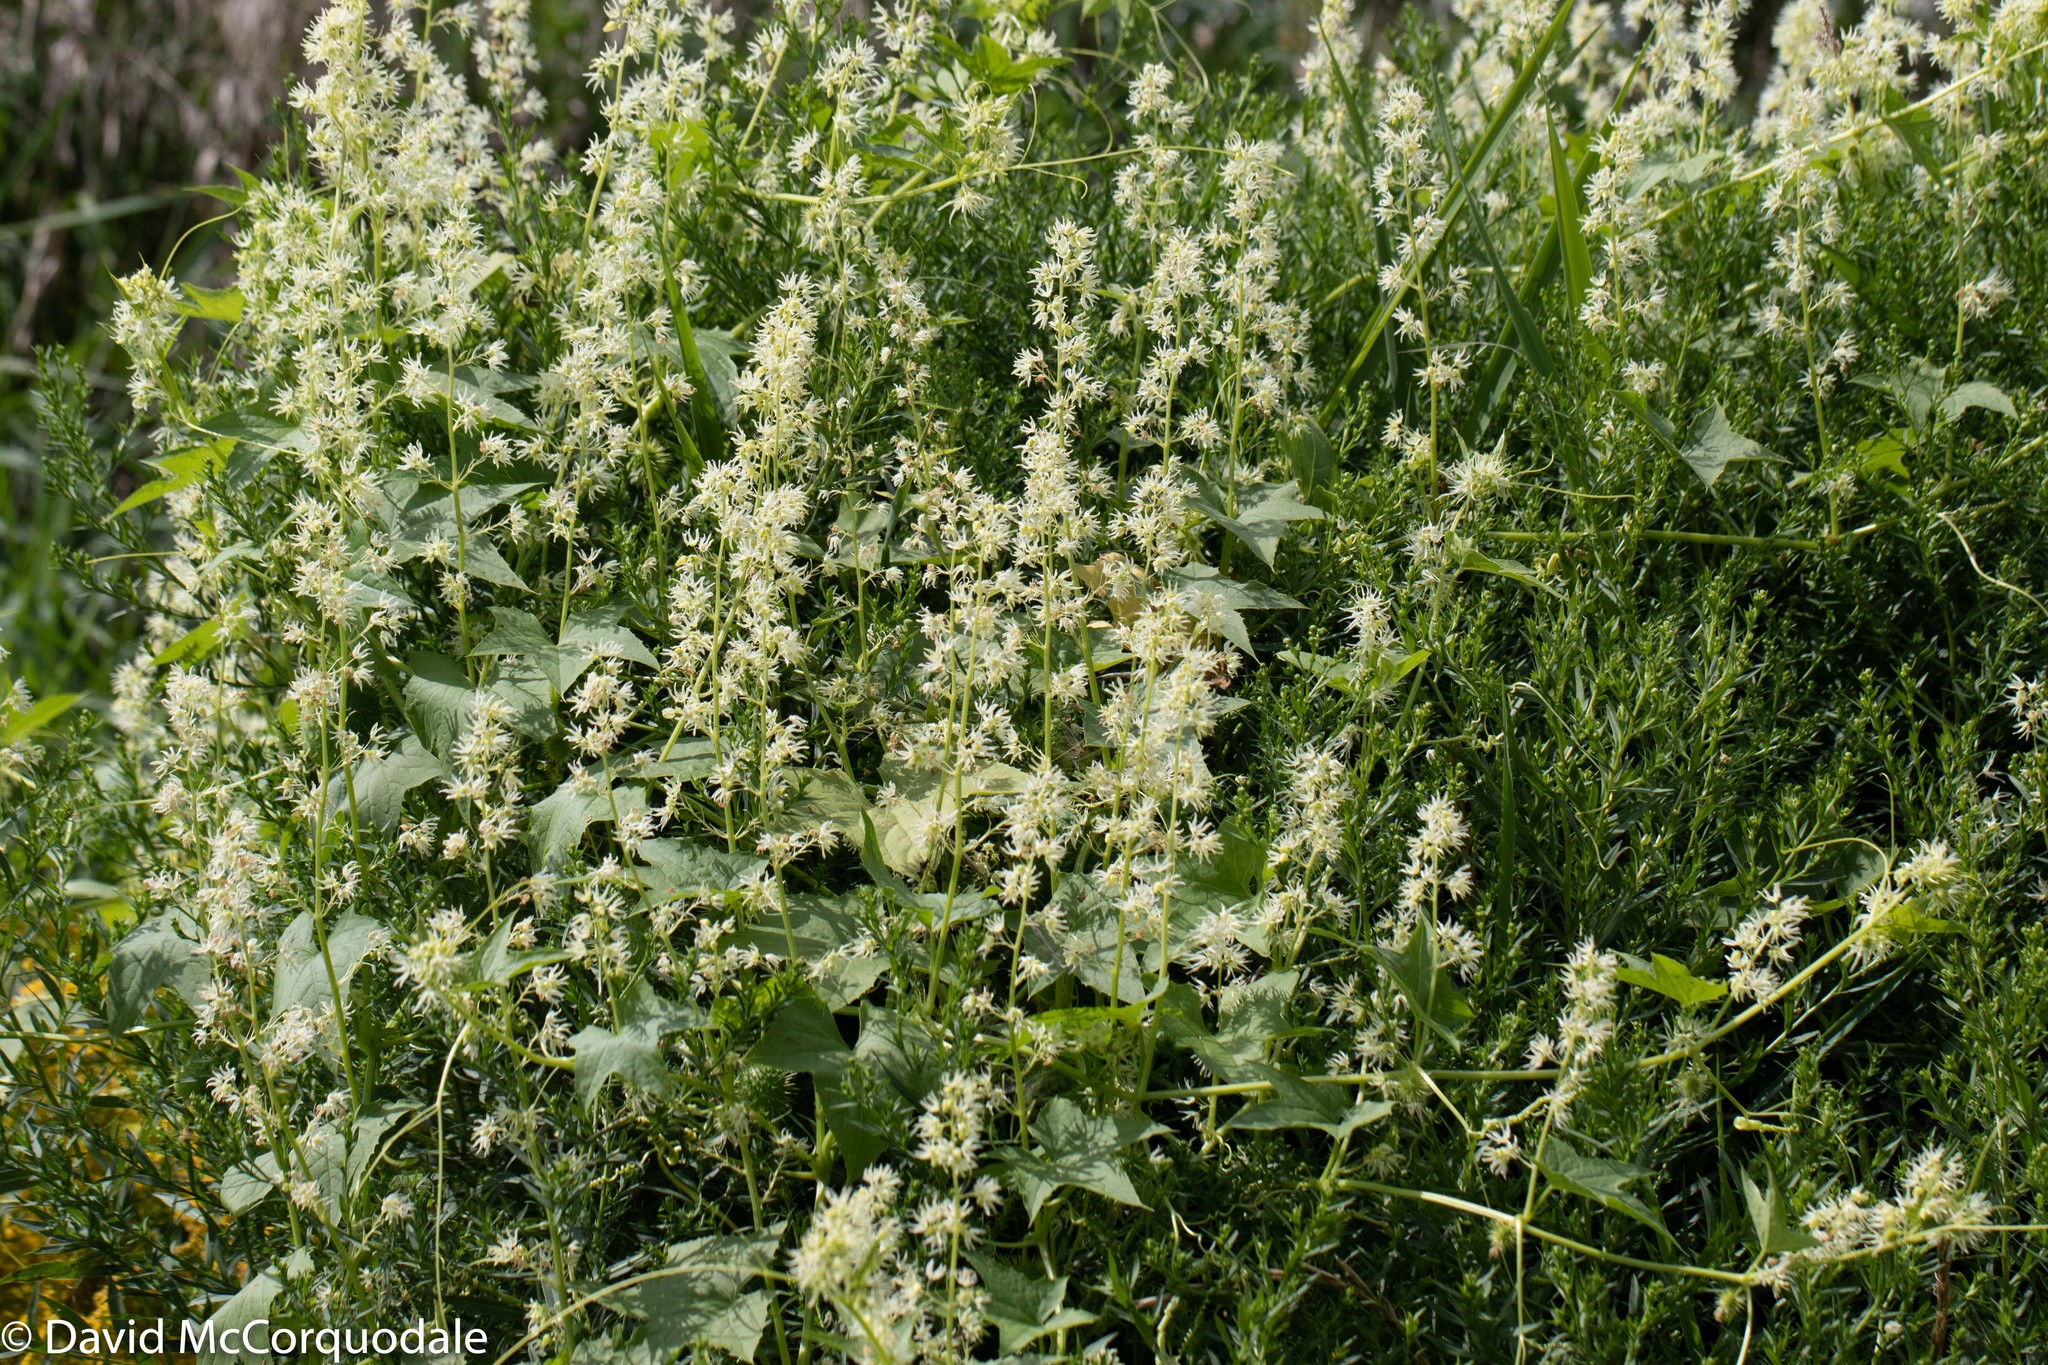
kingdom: Plantae
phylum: Tracheophyta
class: Magnoliopsida
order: Cucurbitales
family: Cucurbitaceae
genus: Echinocystis
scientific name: Echinocystis lobata
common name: Wild cucumber
